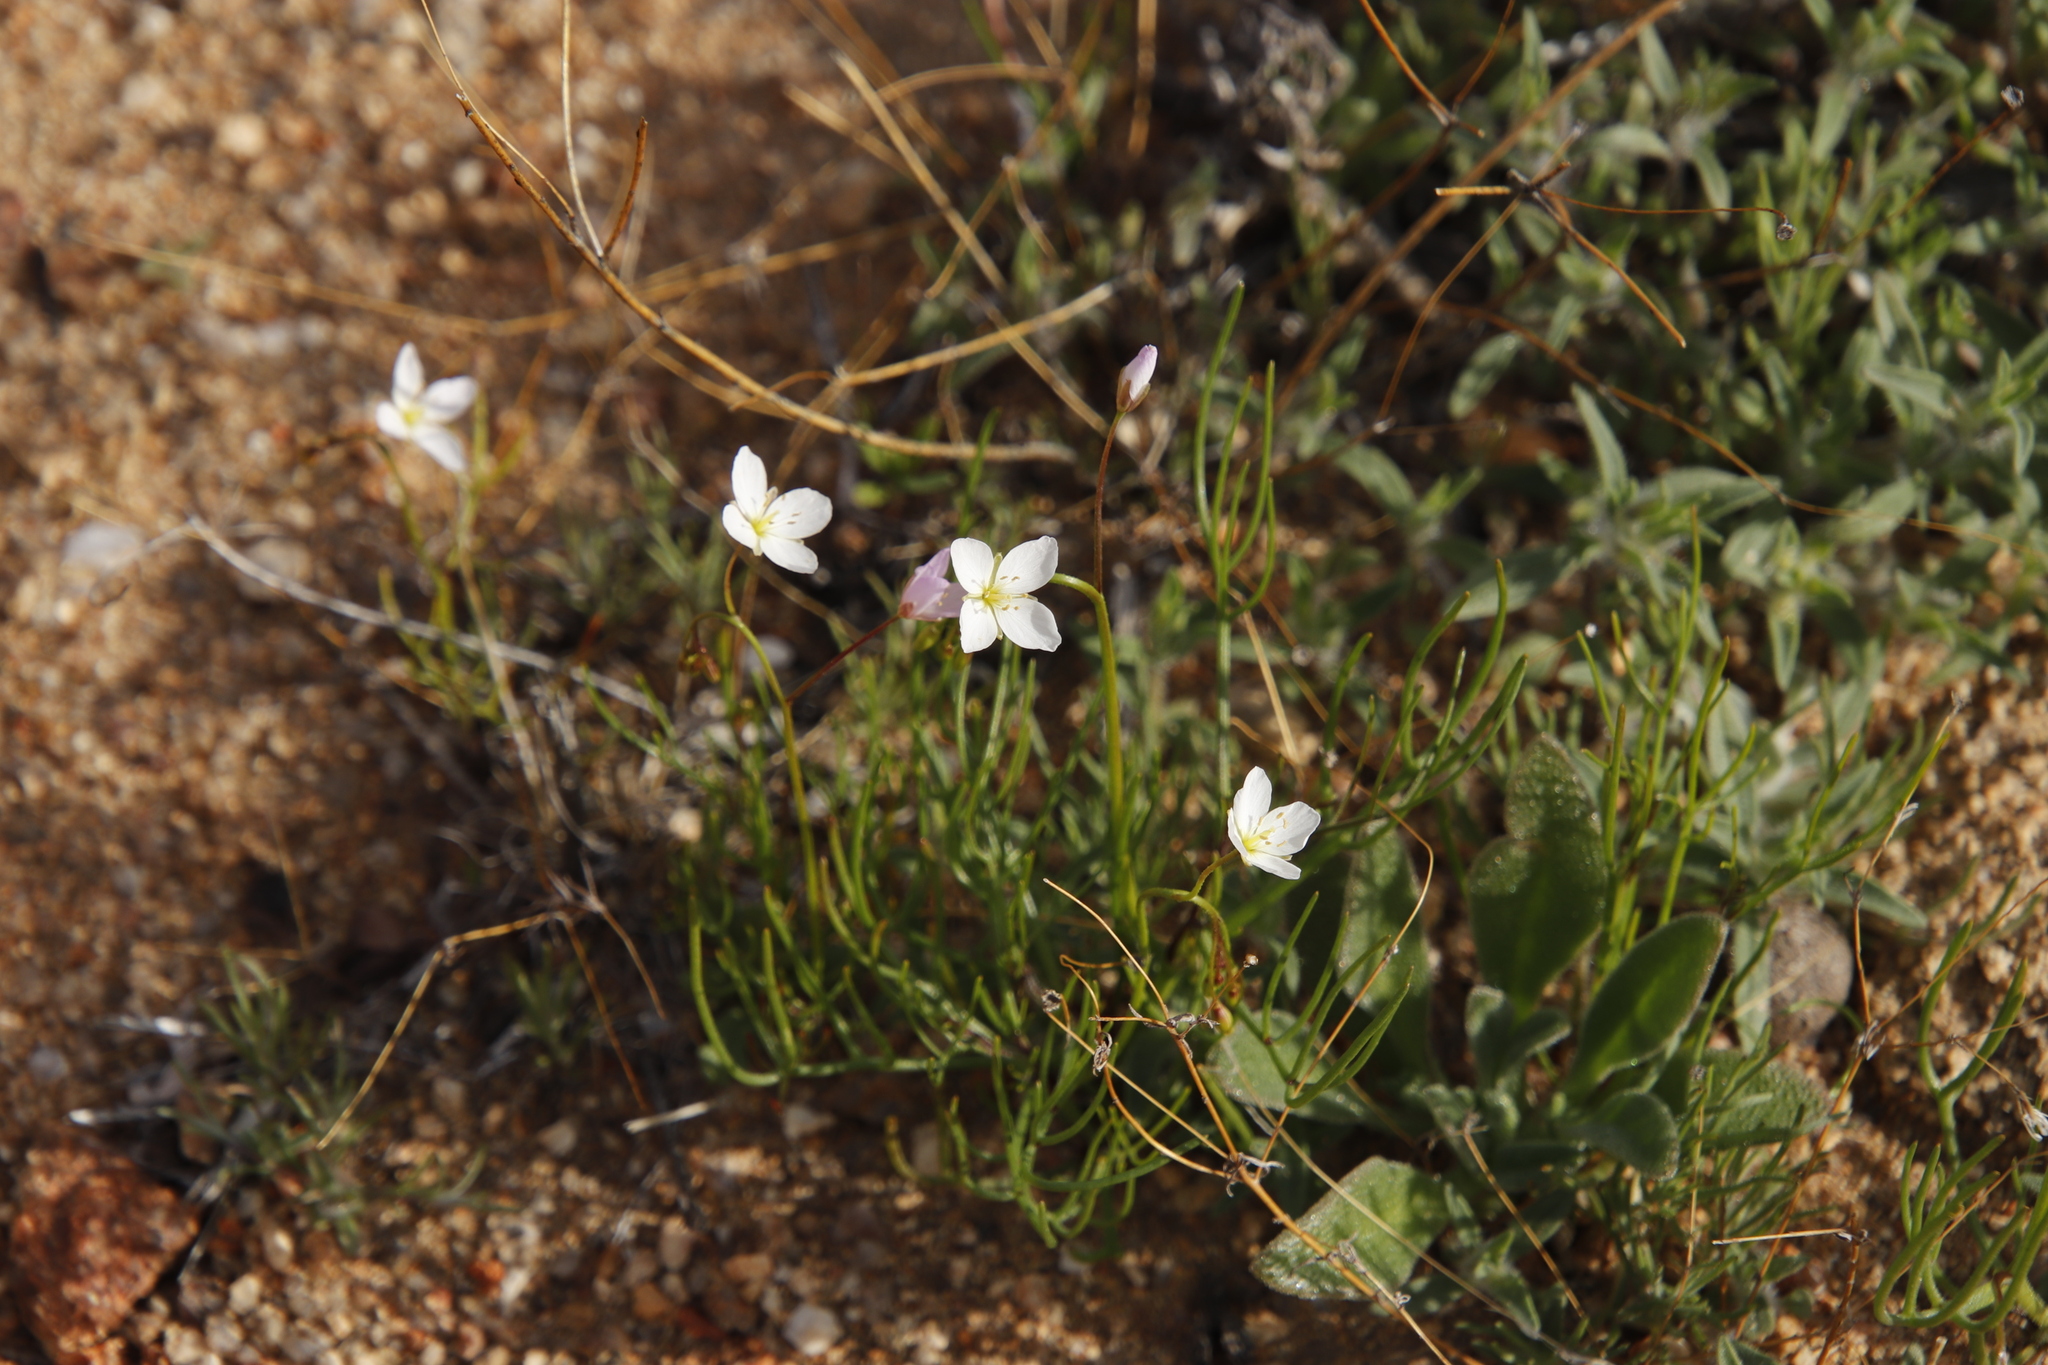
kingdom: Plantae
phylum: Tracheophyta
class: Magnoliopsida
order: Brassicales
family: Brassicaceae
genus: Heliophila
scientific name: Heliophila variabilis
